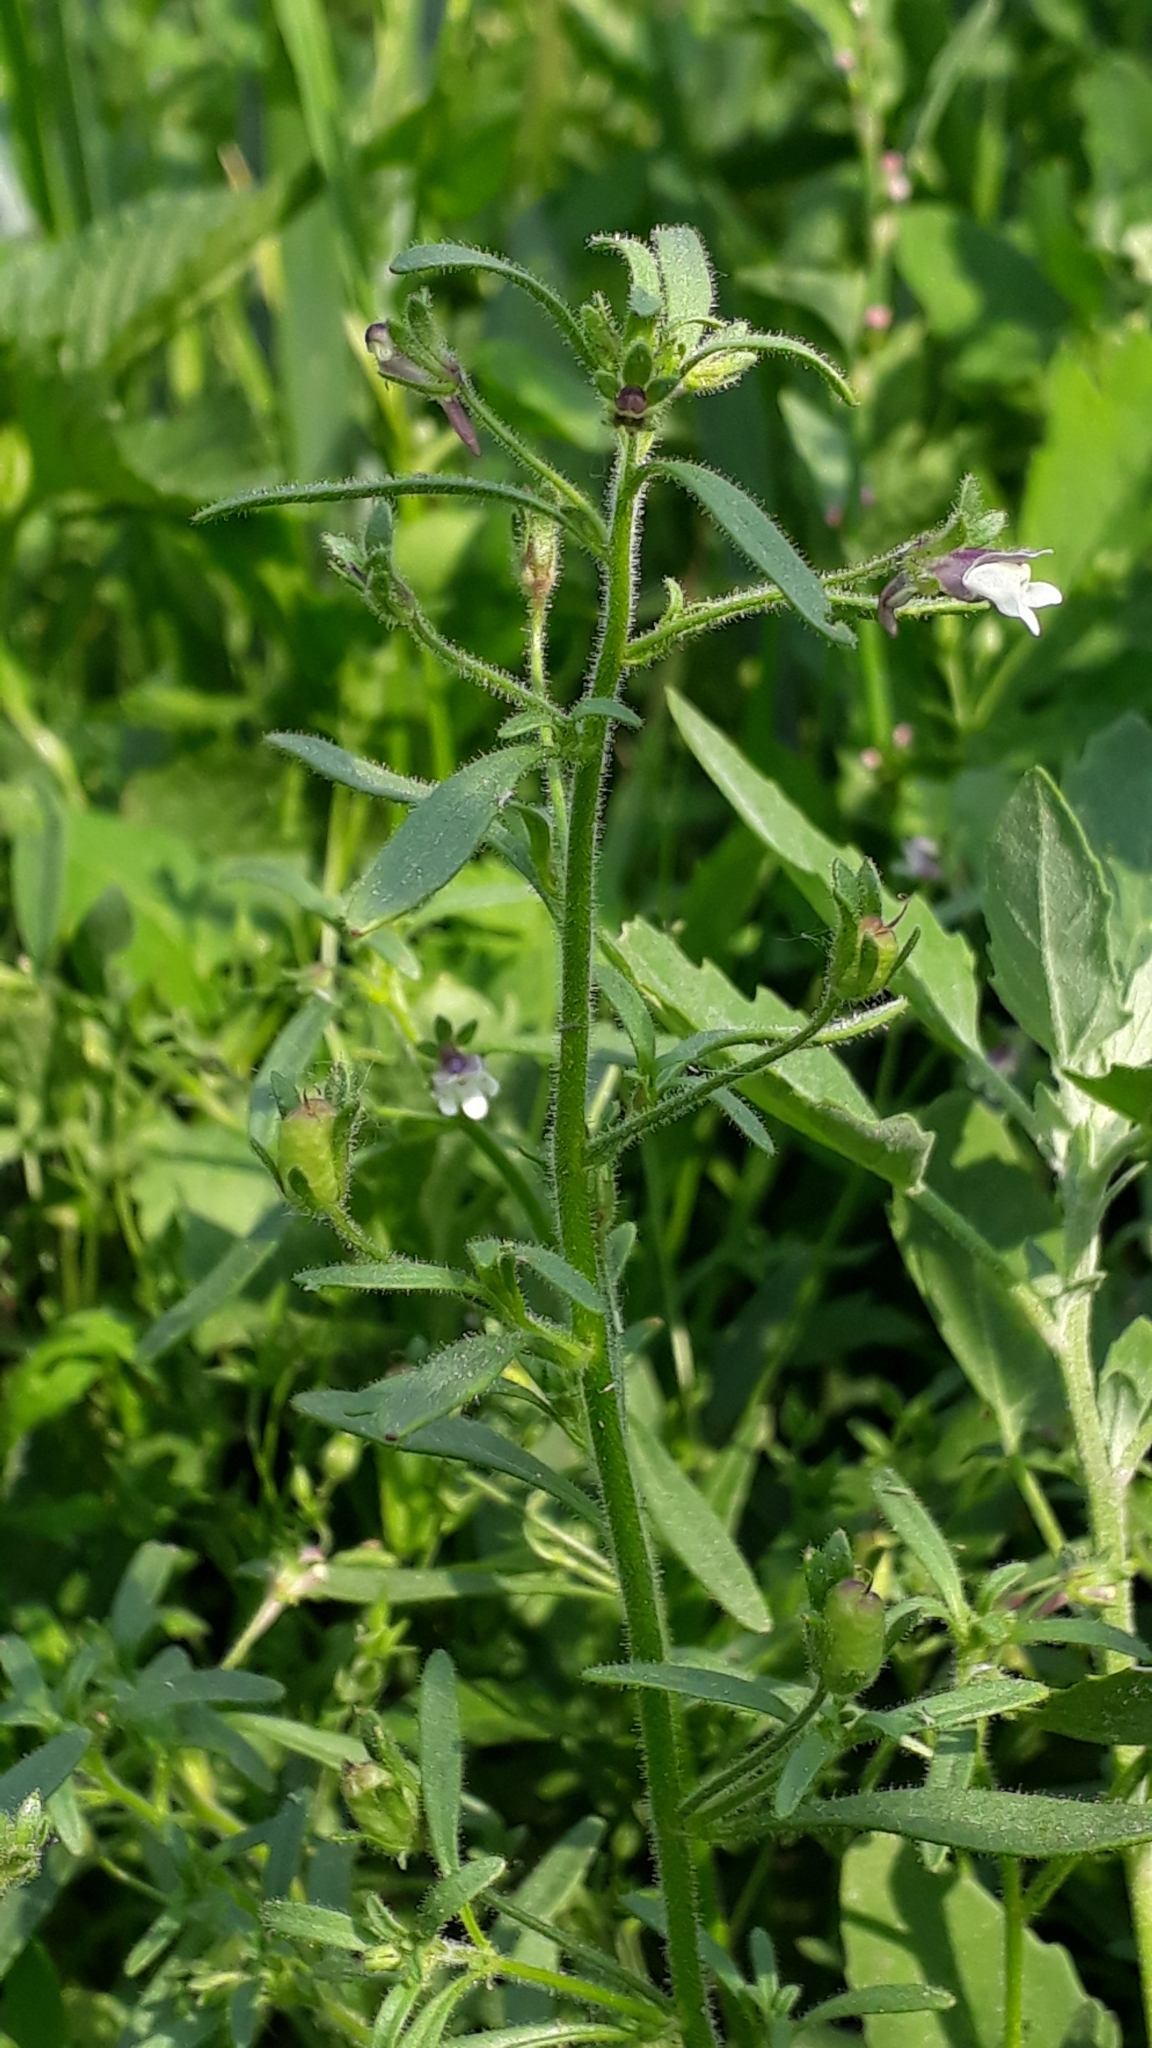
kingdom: Plantae
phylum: Tracheophyta
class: Magnoliopsida
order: Lamiales
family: Plantaginaceae
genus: Chaenorhinum
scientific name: Chaenorhinum minus
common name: Dwarf snapdragon
